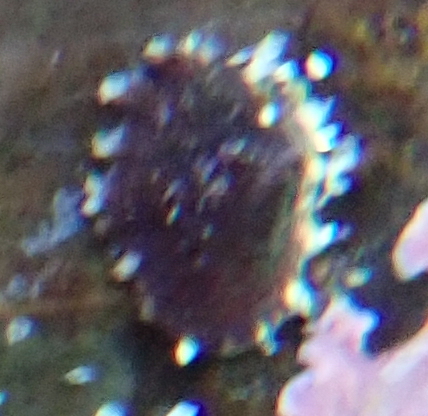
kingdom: Animalia
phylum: Mollusca
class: Gastropoda
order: Siphonariida
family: Siphonariidae
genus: Siphonaria
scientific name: Siphonaria australis
